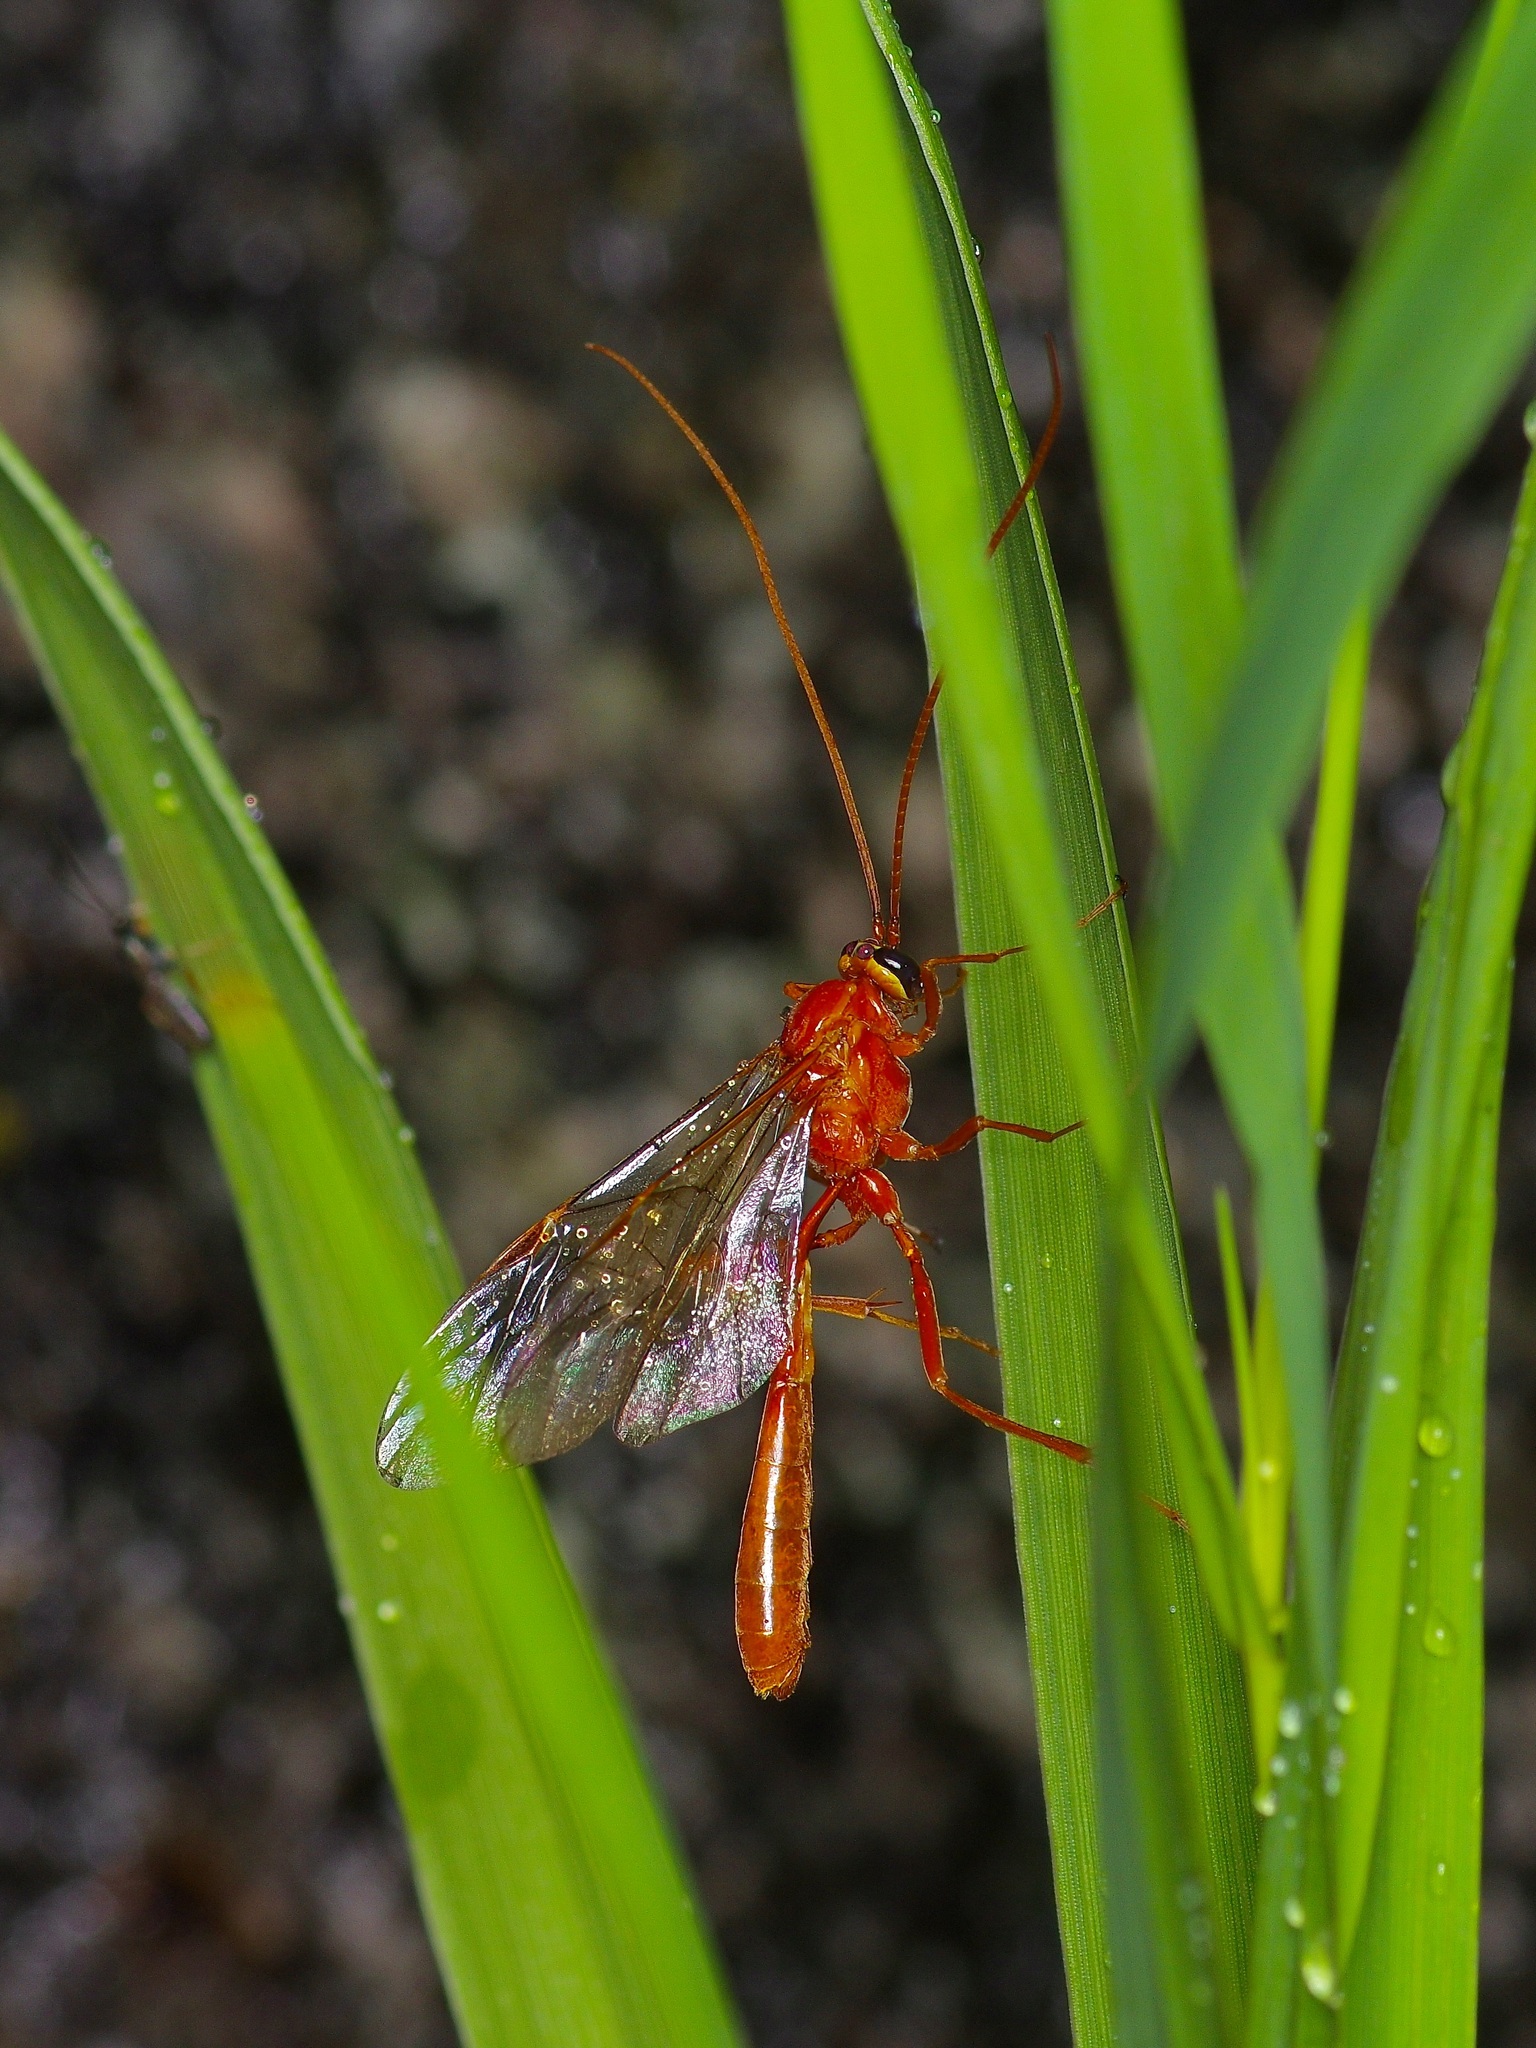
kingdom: Animalia
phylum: Arthropoda
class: Insecta
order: Hymenoptera
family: Ichneumonidae
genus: Ophion
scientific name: Ophion
